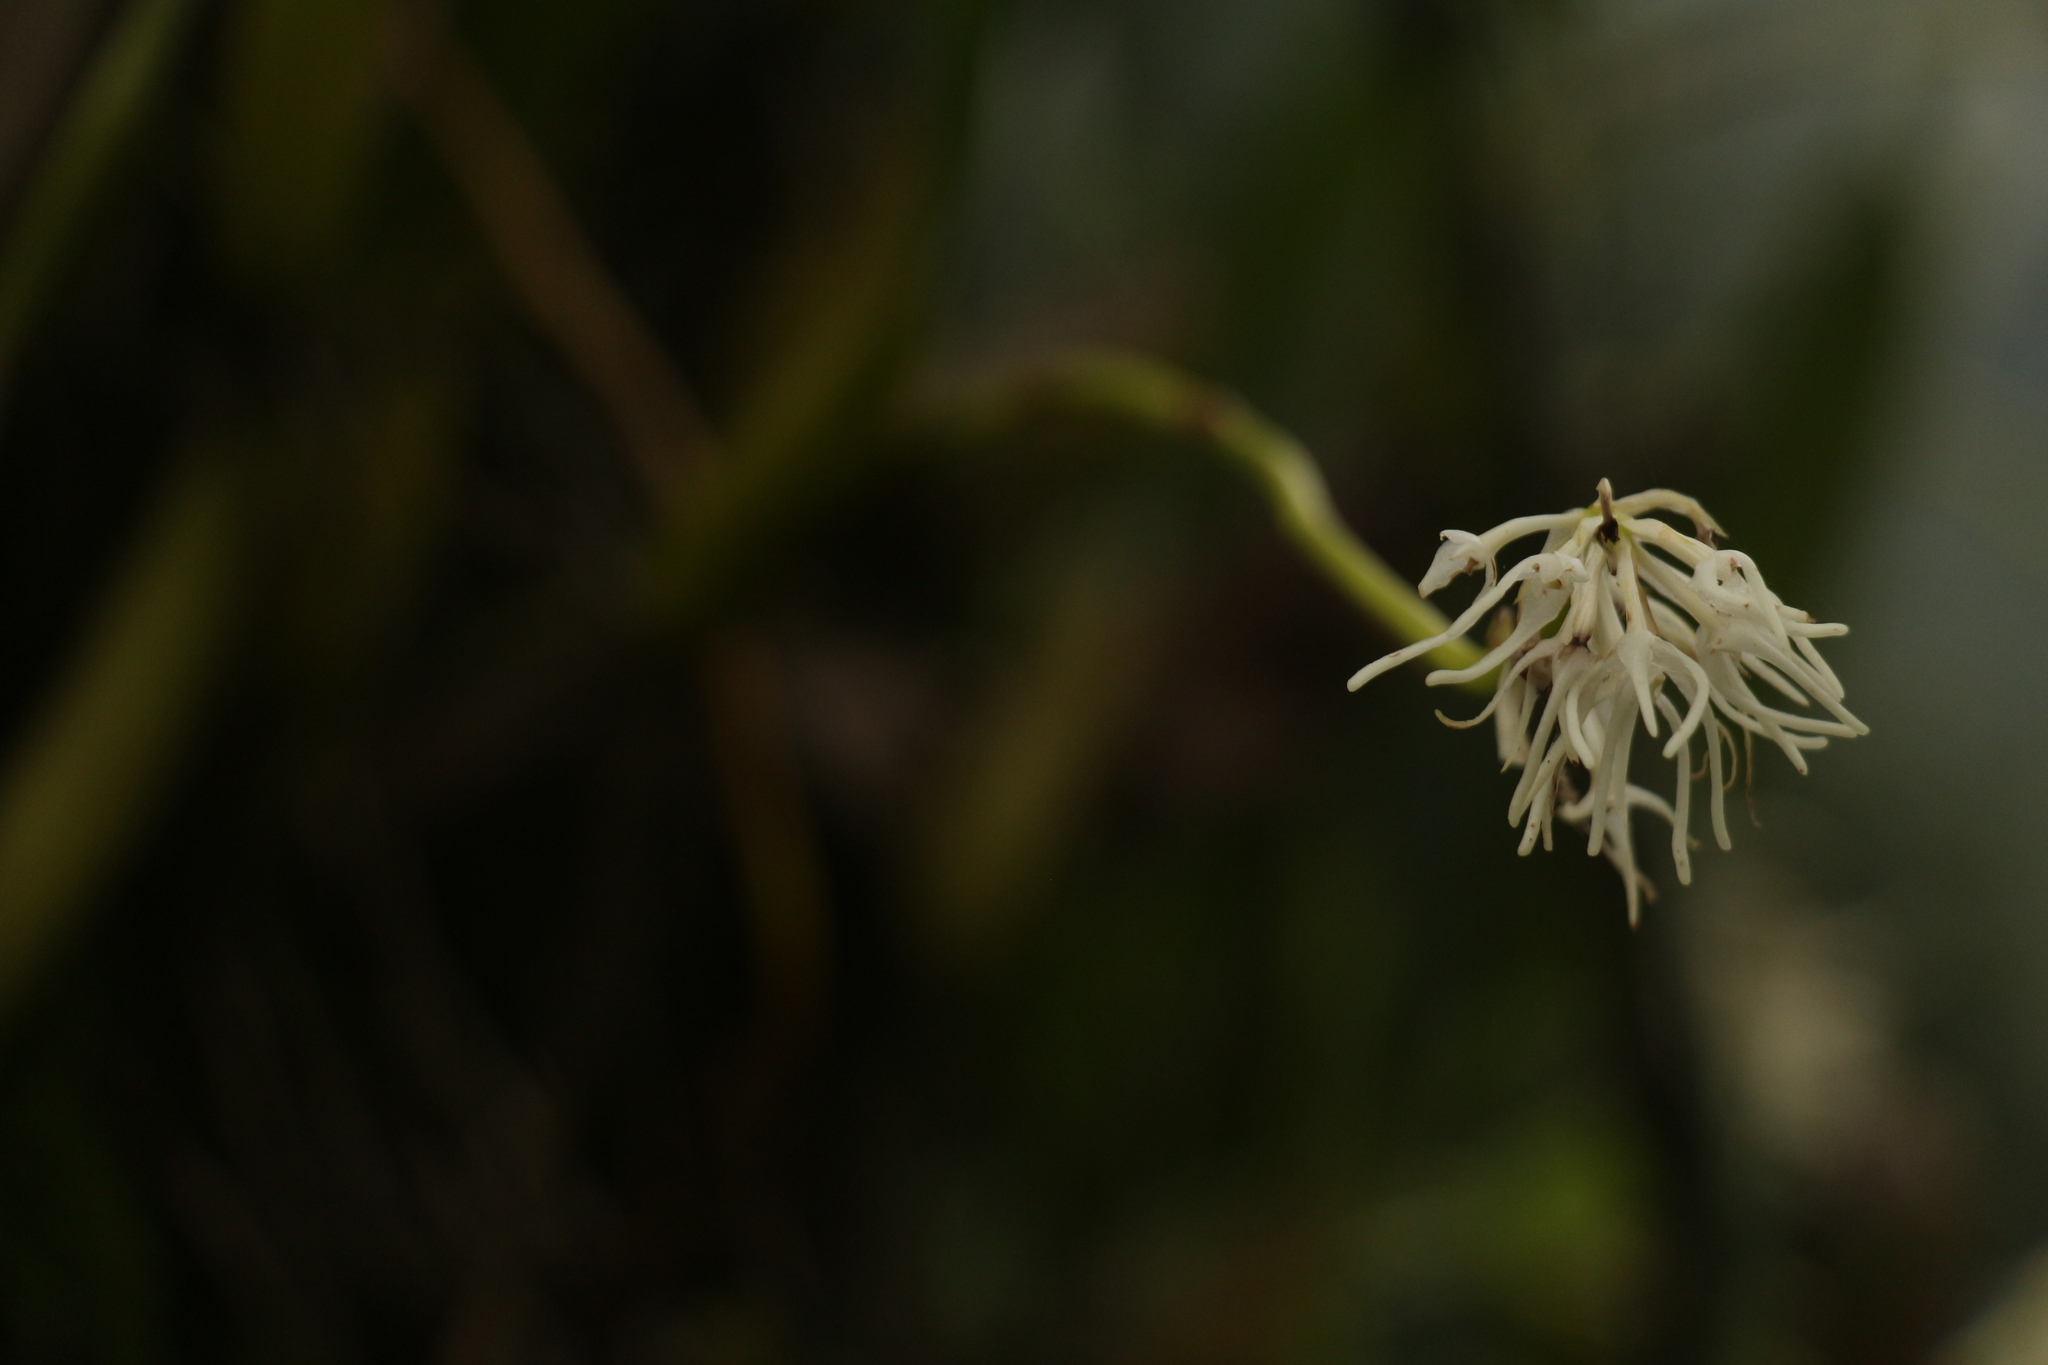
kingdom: Plantae
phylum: Tracheophyta
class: Liliopsida
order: Asparagales
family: Orchidaceae
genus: Bulbophyllum
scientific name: Bulbophyllum cauliflorum
